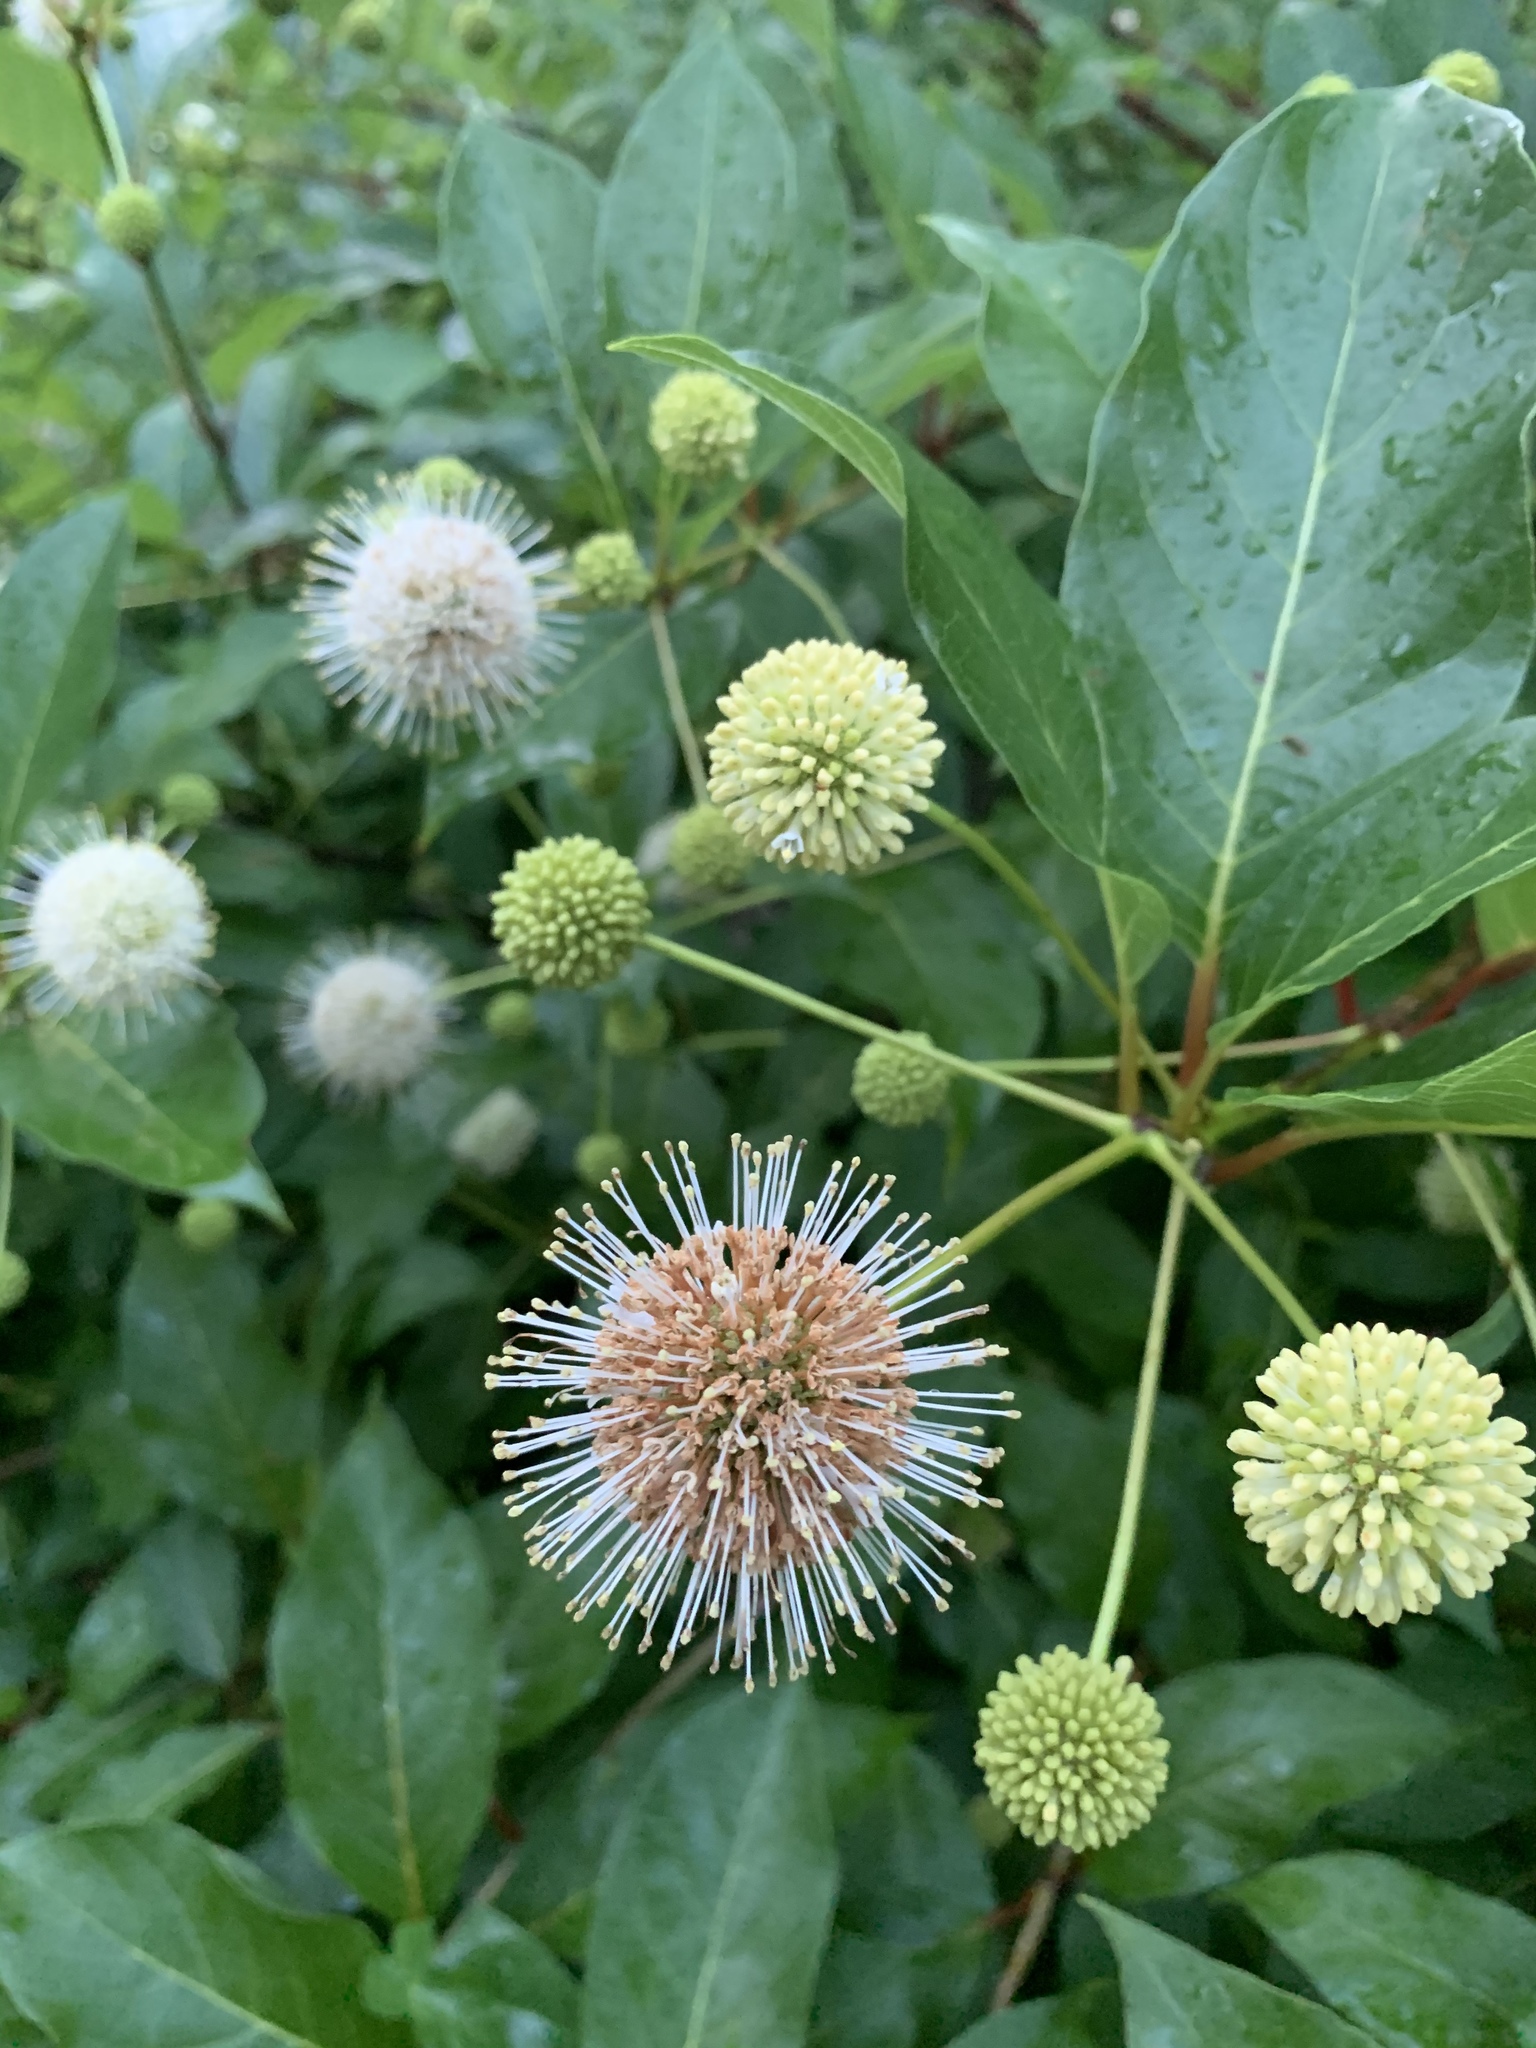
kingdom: Plantae
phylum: Tracheophyta
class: Magnoliopsida
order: Gentianales
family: Rubiaceae
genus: Cephalanthus
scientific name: Cephalanthus occidentalis
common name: Button-willow
